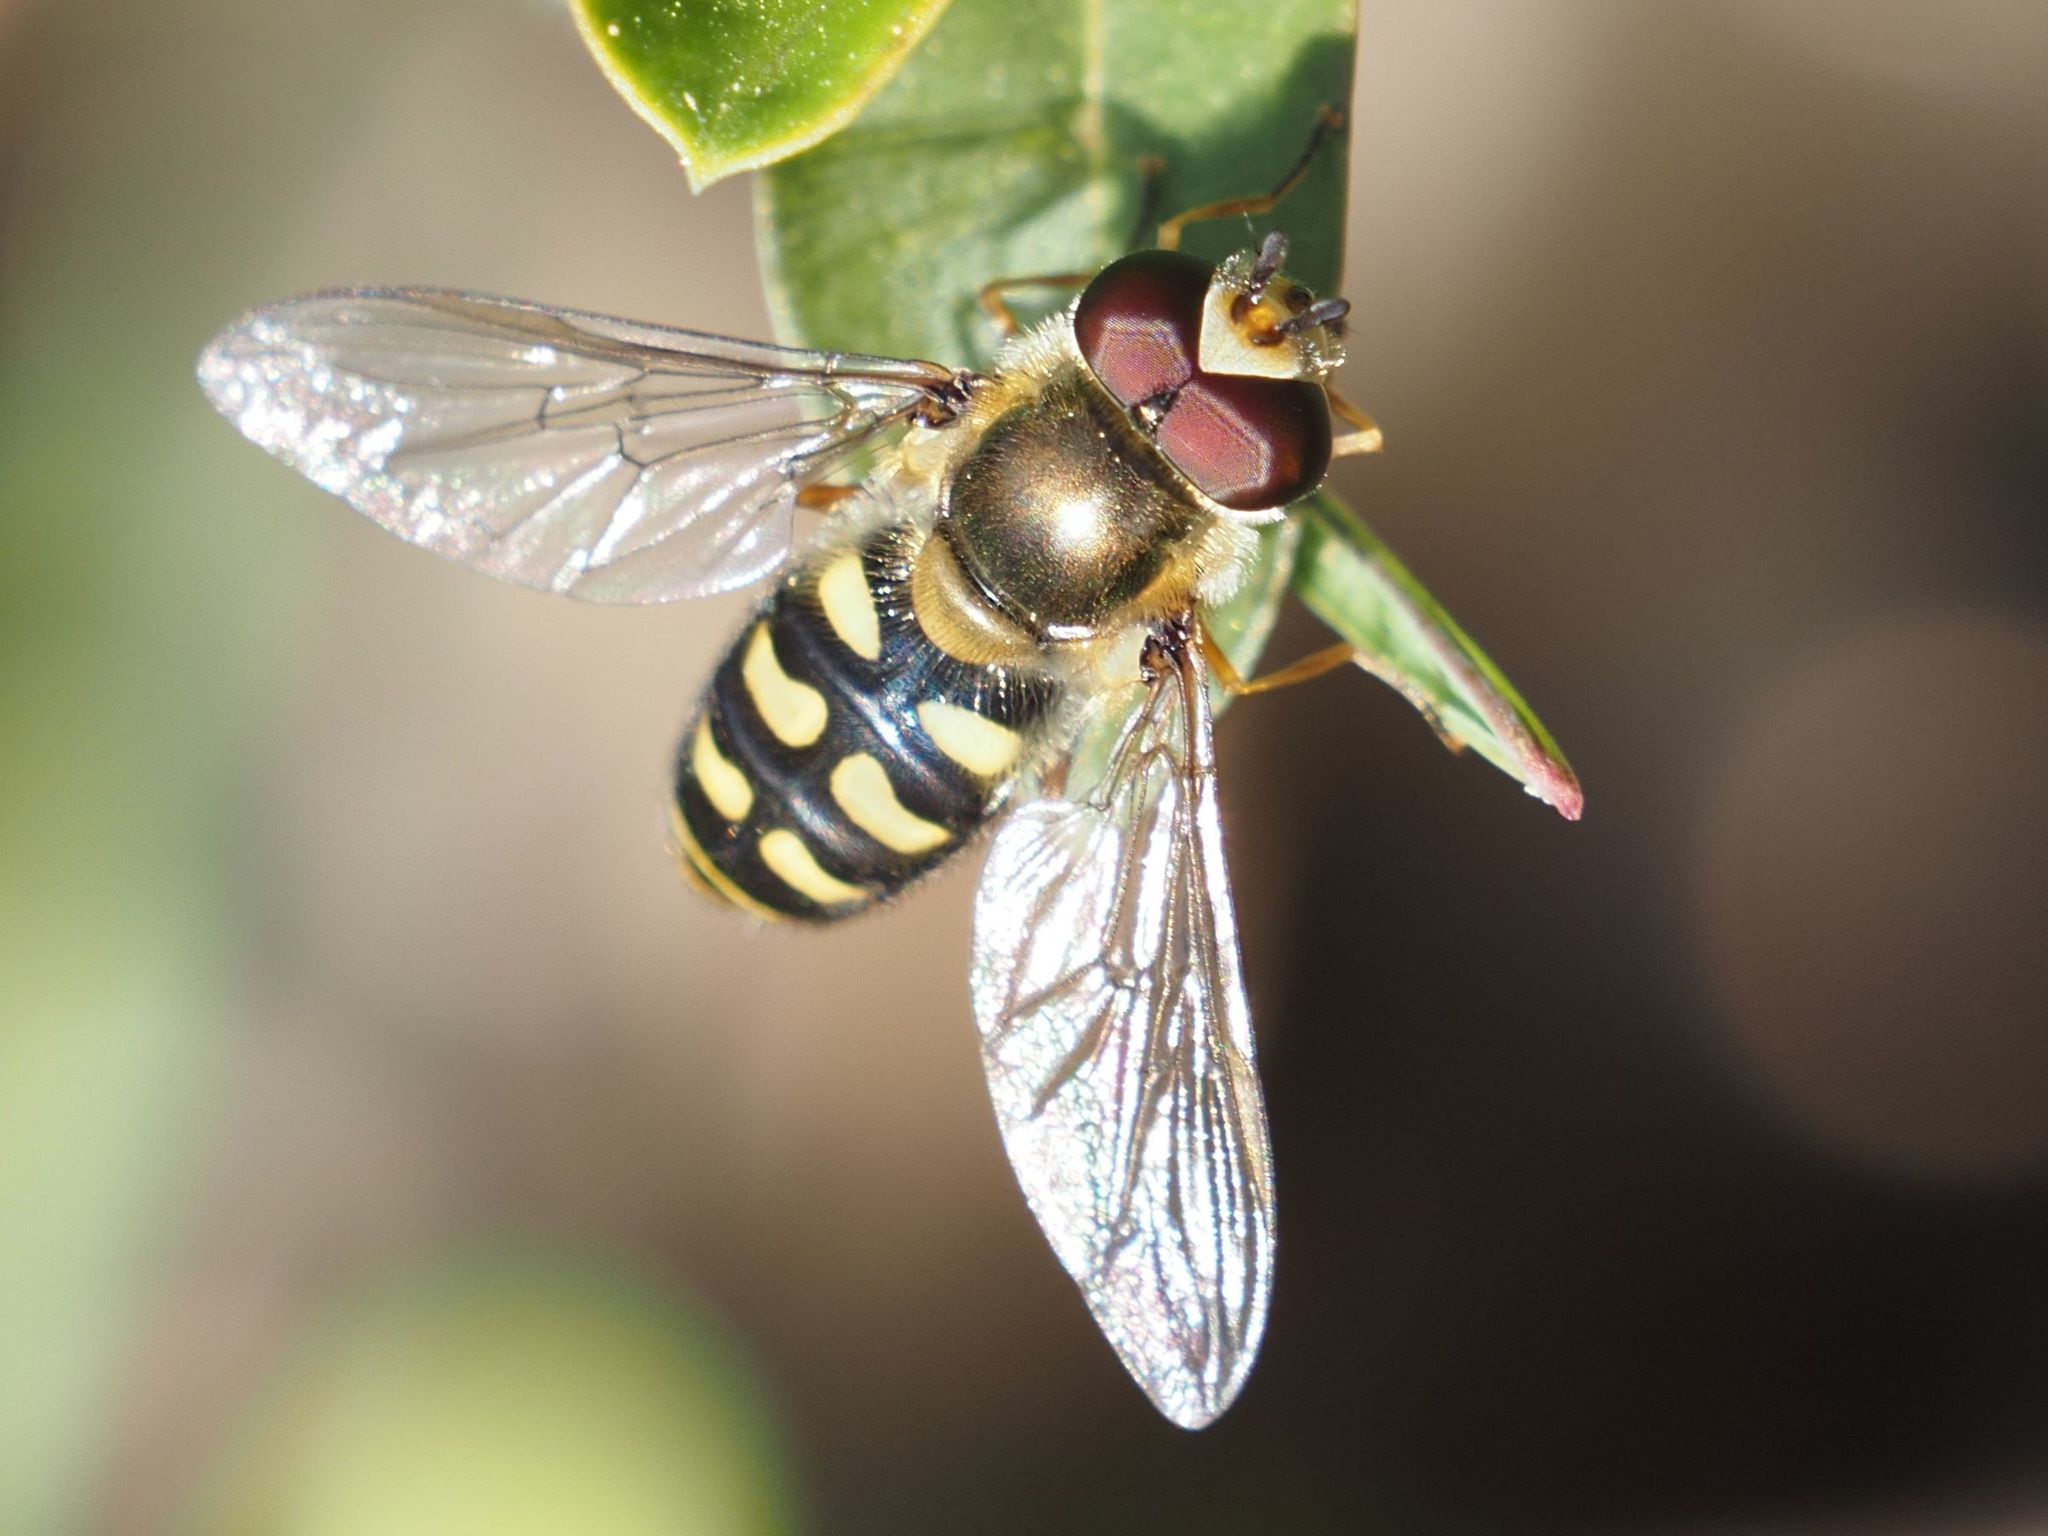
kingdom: Animalia
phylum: Arthropoda
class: Insecta
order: Diptera
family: Syrphidae
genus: Eupeodes
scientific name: Eupeodes luniger
